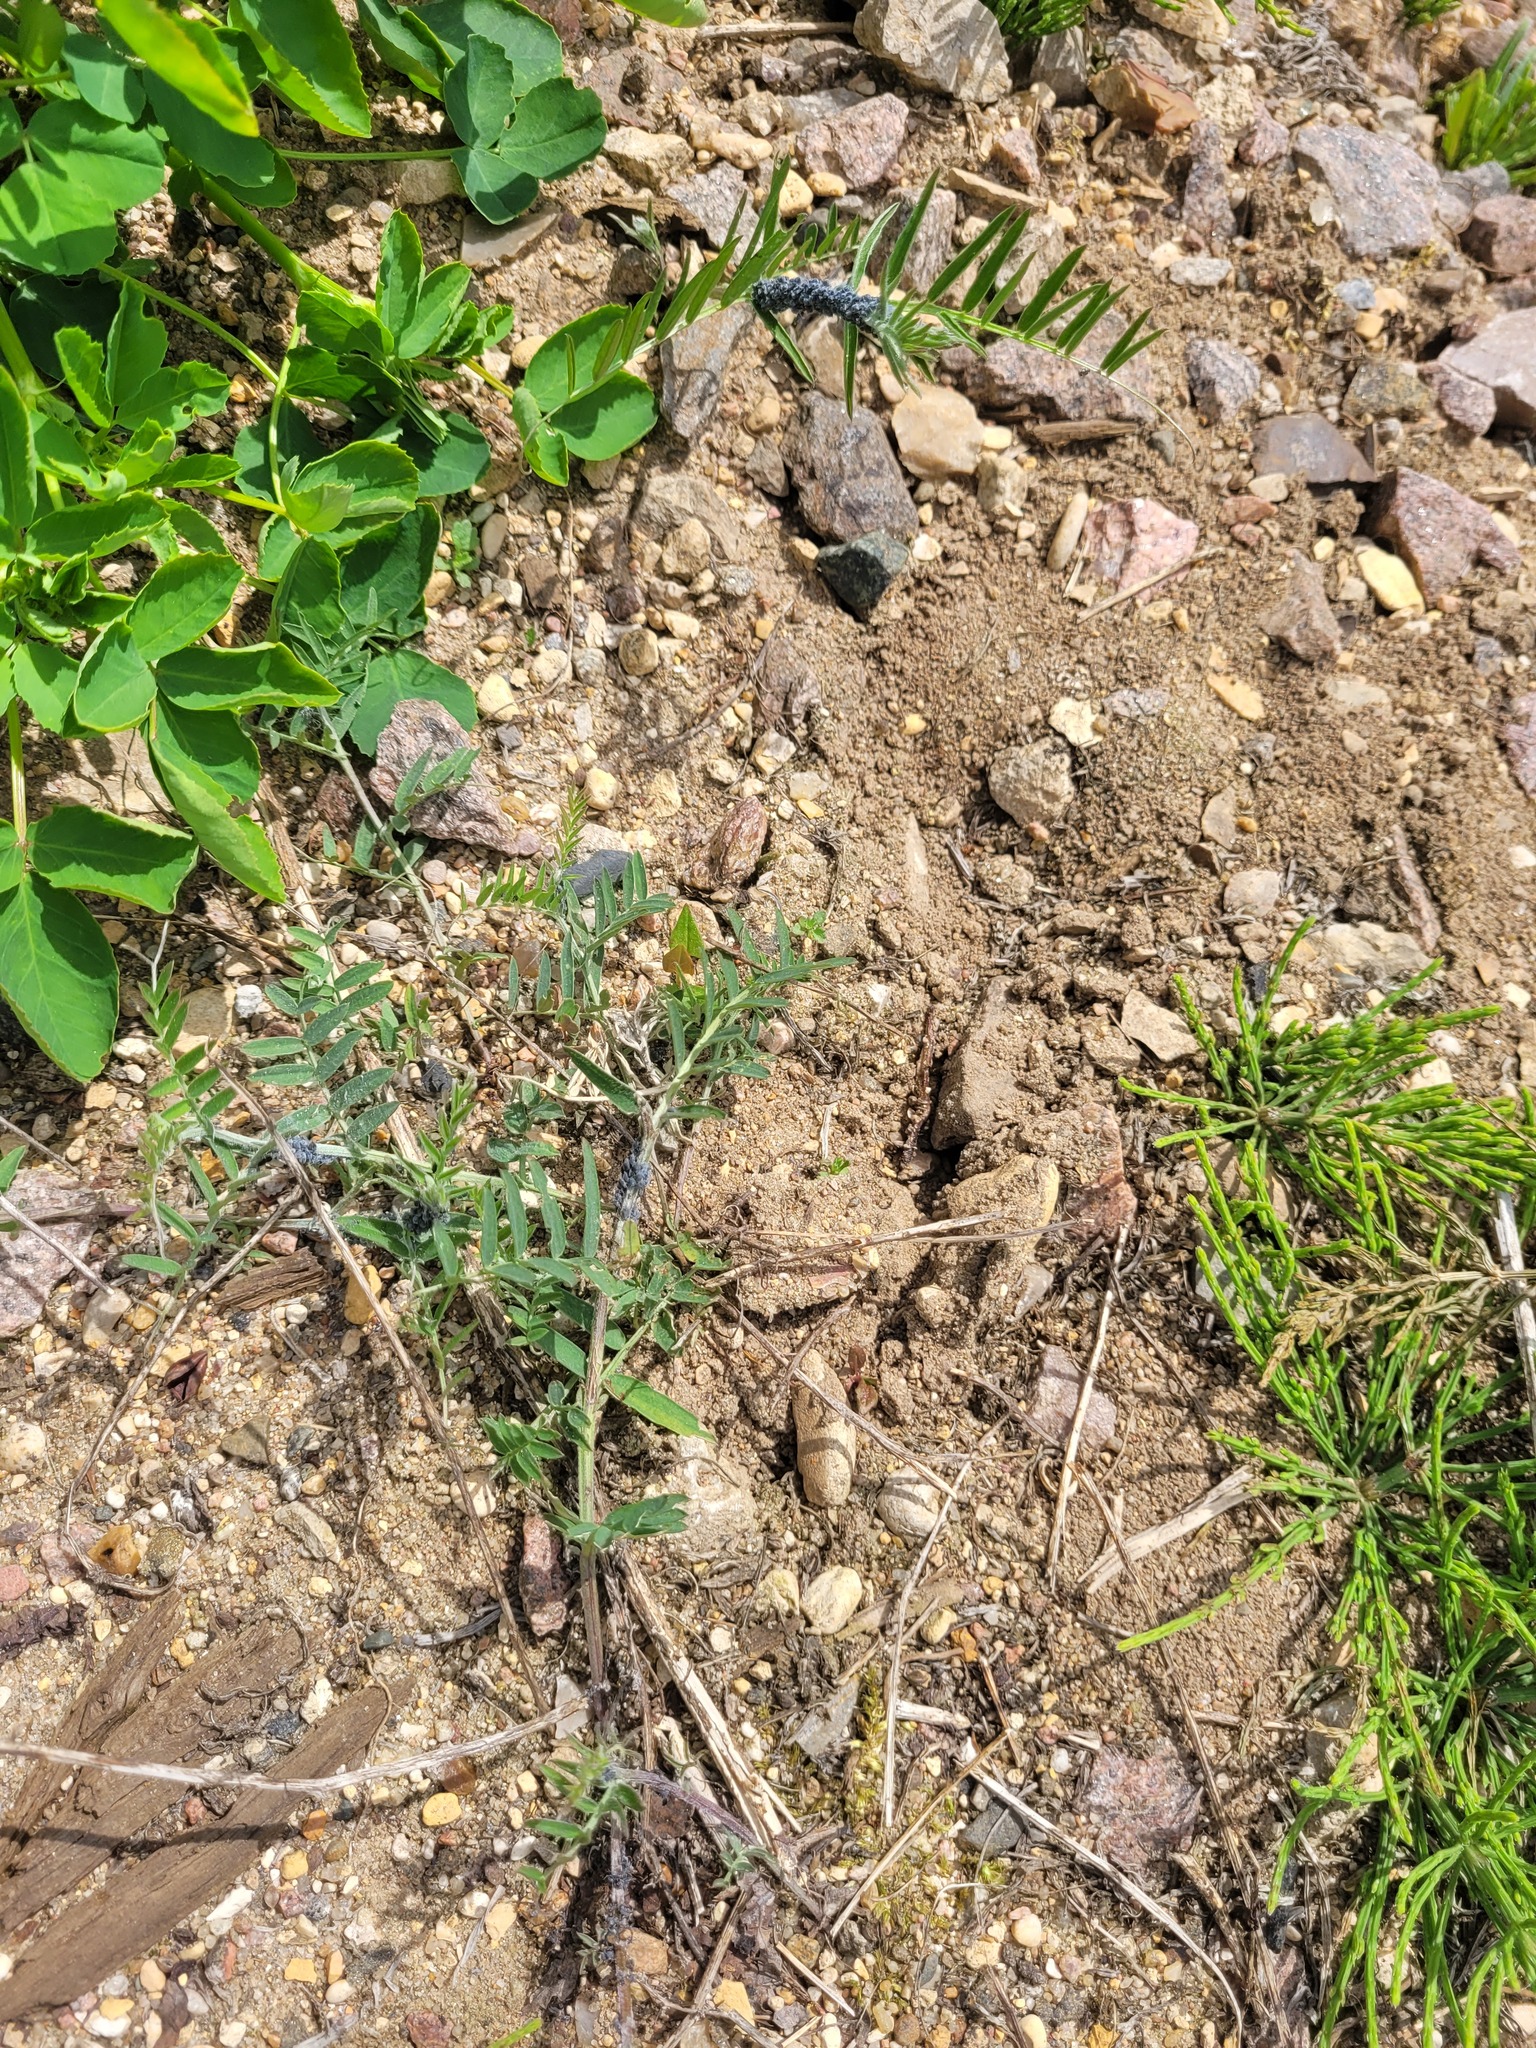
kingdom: Plantae
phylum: Tracheophyta
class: Magnoliopsida
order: Fabales
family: Fabaceae
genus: Vicia
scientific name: Vicia cracca
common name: Bird vetch
